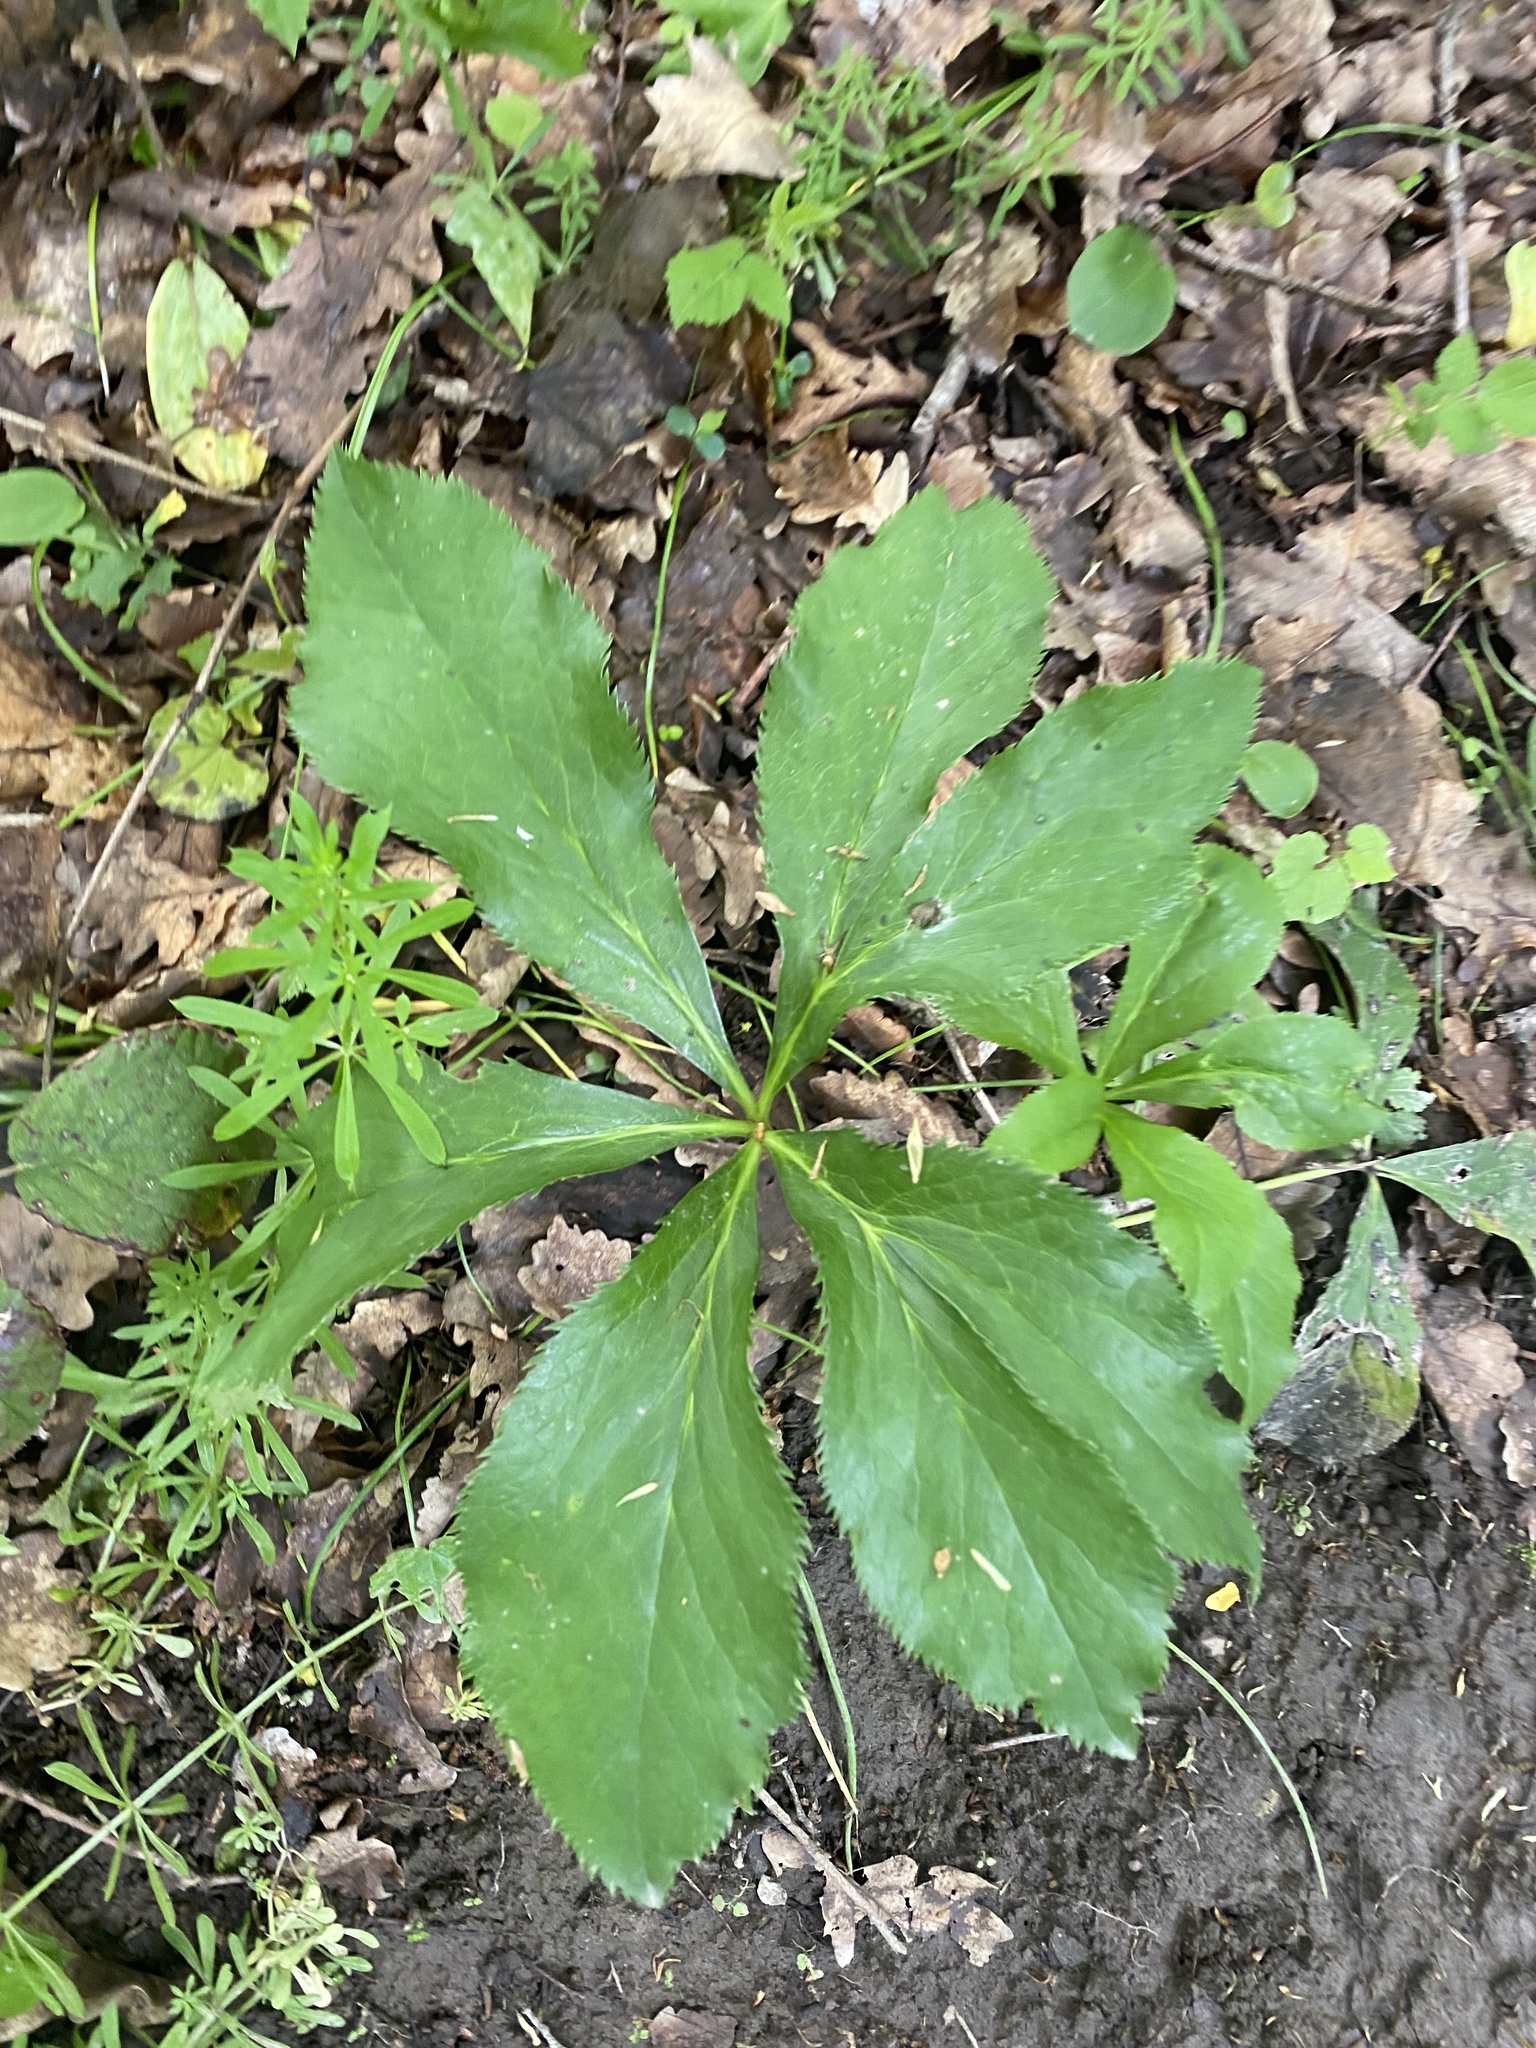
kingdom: Plantae
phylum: Tracheophyta
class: Magnoliopsida
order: Ranunculales
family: Ranunculaceae
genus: Helleborus
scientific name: Helleborus orientalis
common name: Lenten-rose
